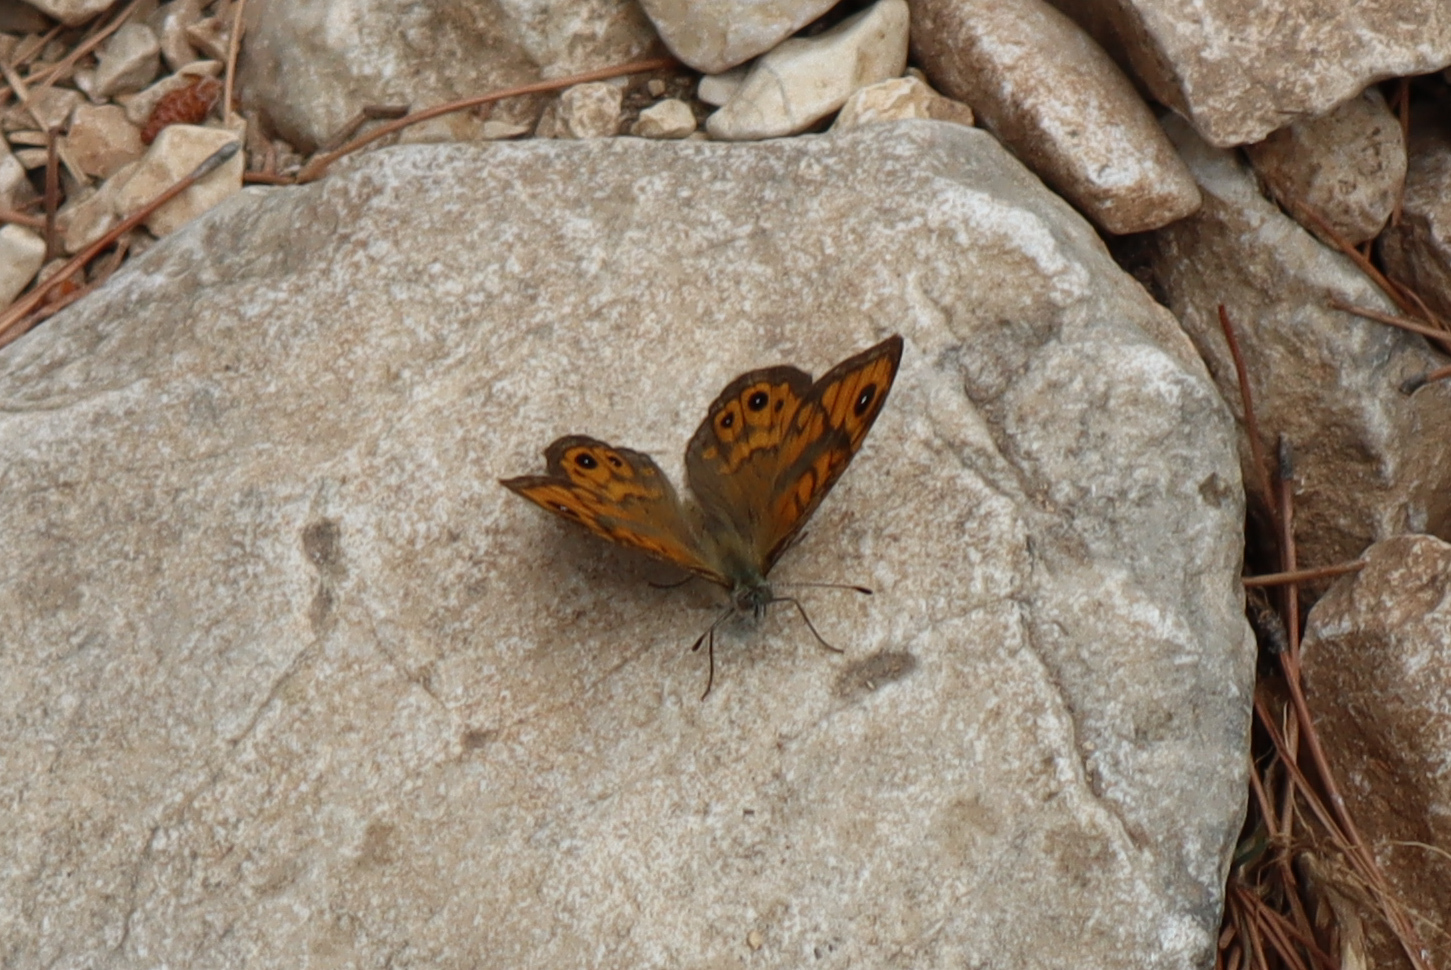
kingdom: Animalia
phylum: Arthropoda
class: Insecta
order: Lepidoptera
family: Nymphalidae
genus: Pararge
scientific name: Pararge Lasiommata megera
